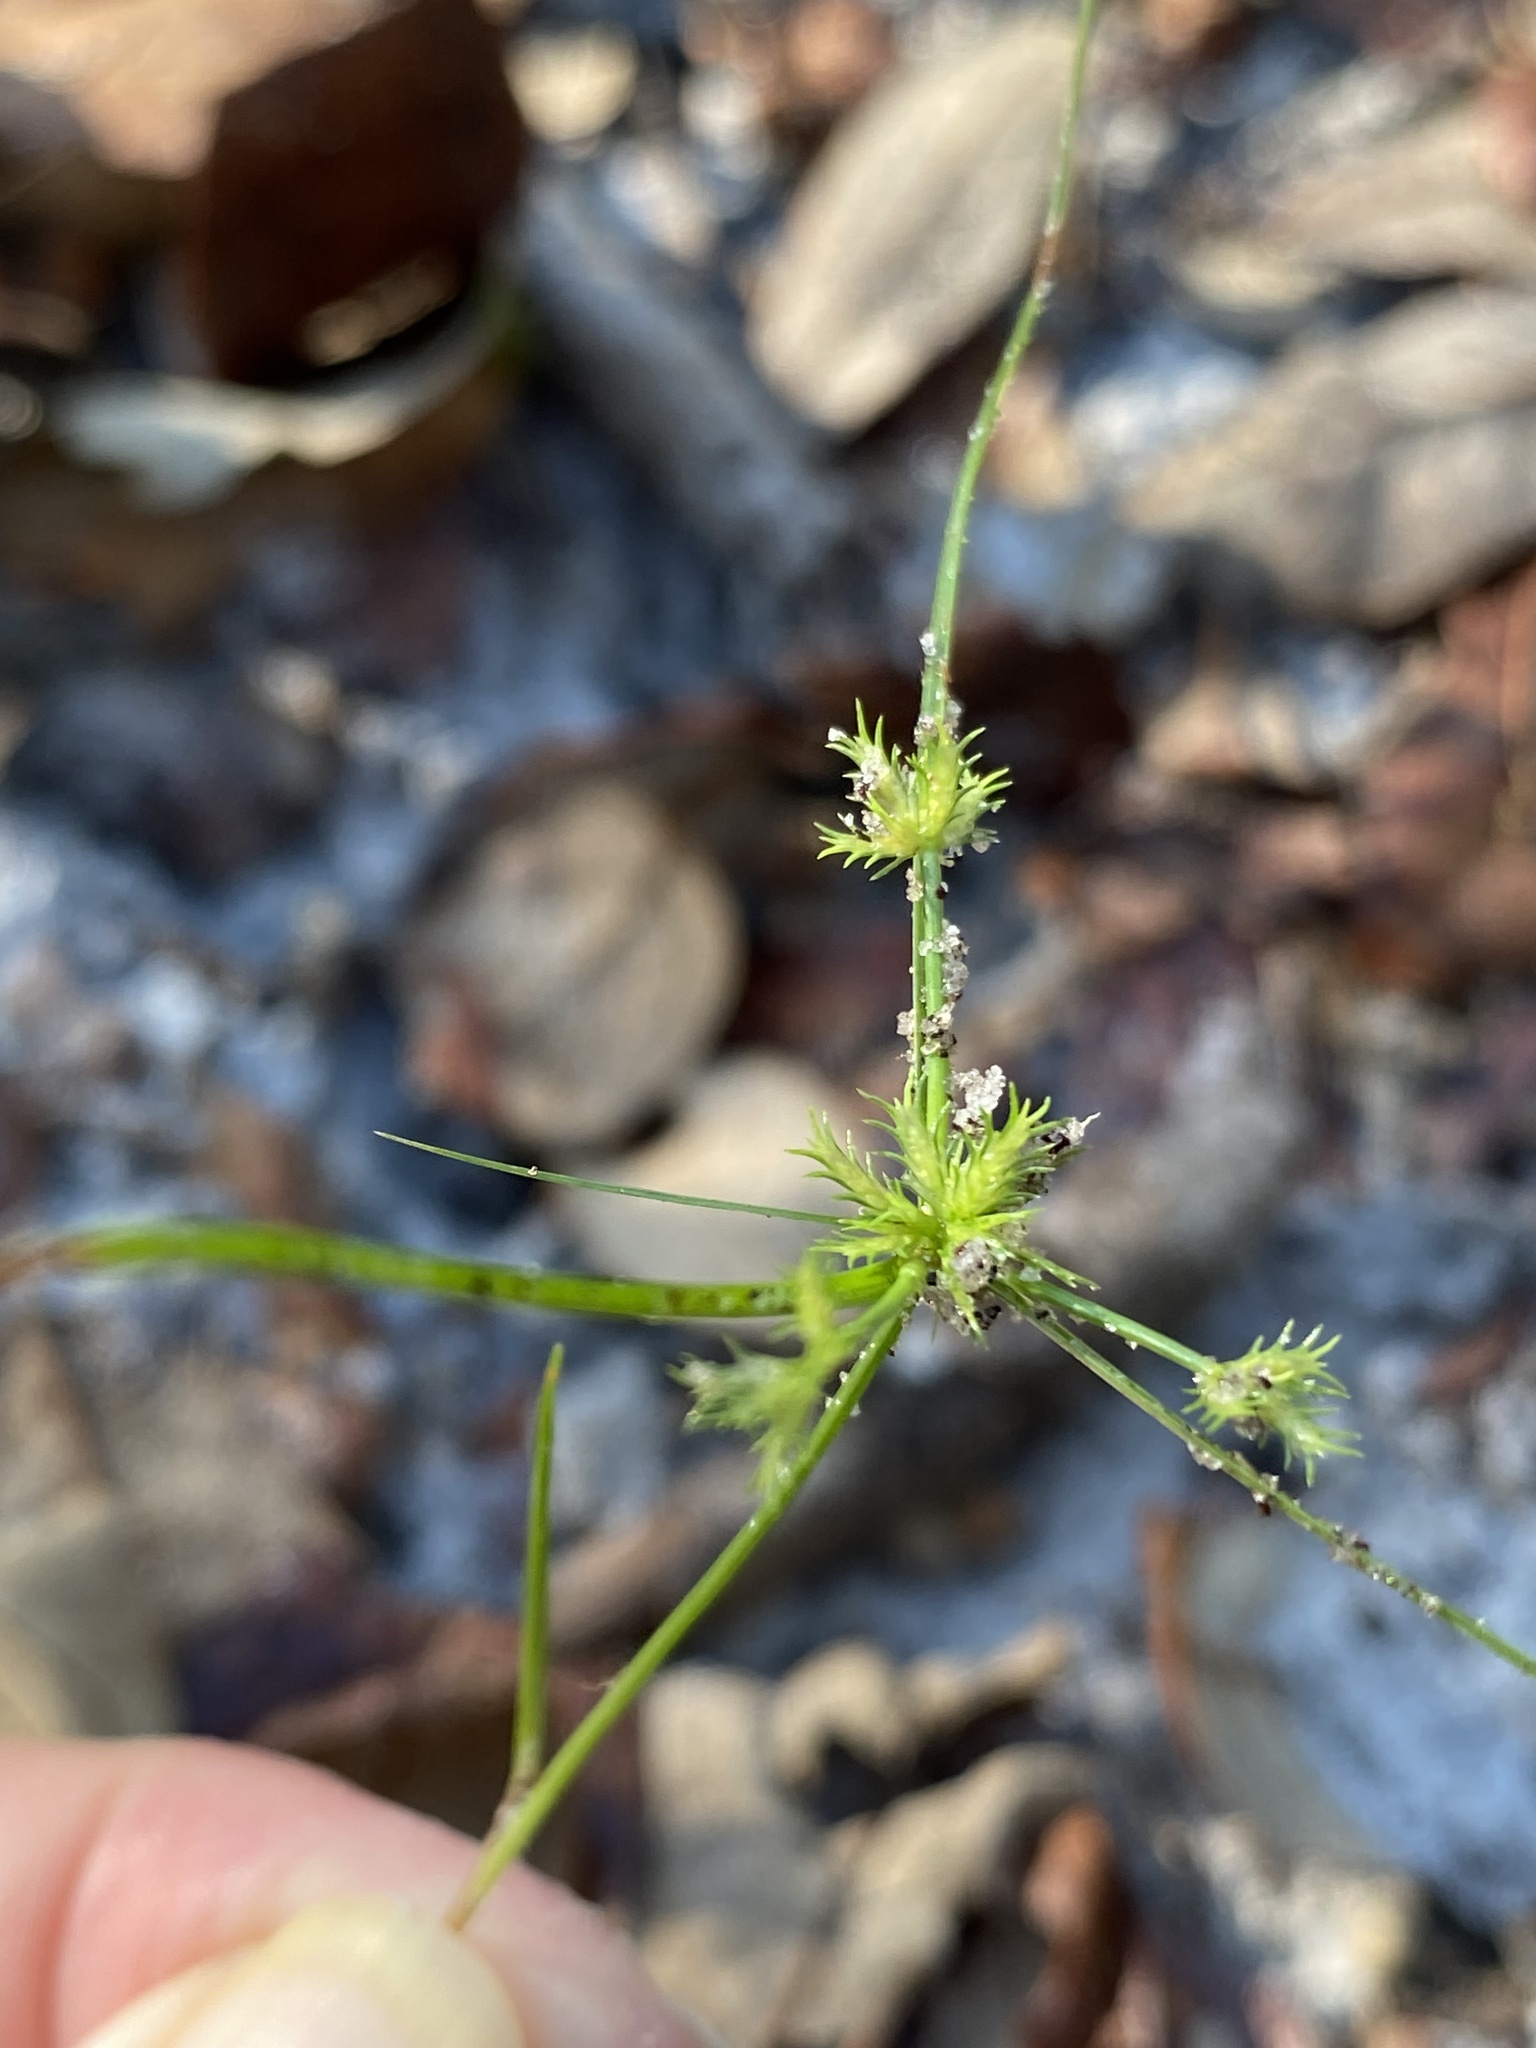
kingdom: Plantae
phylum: Tracheophyta
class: Liliopsida
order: Poales
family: Cyperaceae
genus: Cyperus
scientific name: Cyperus cuspidatus
